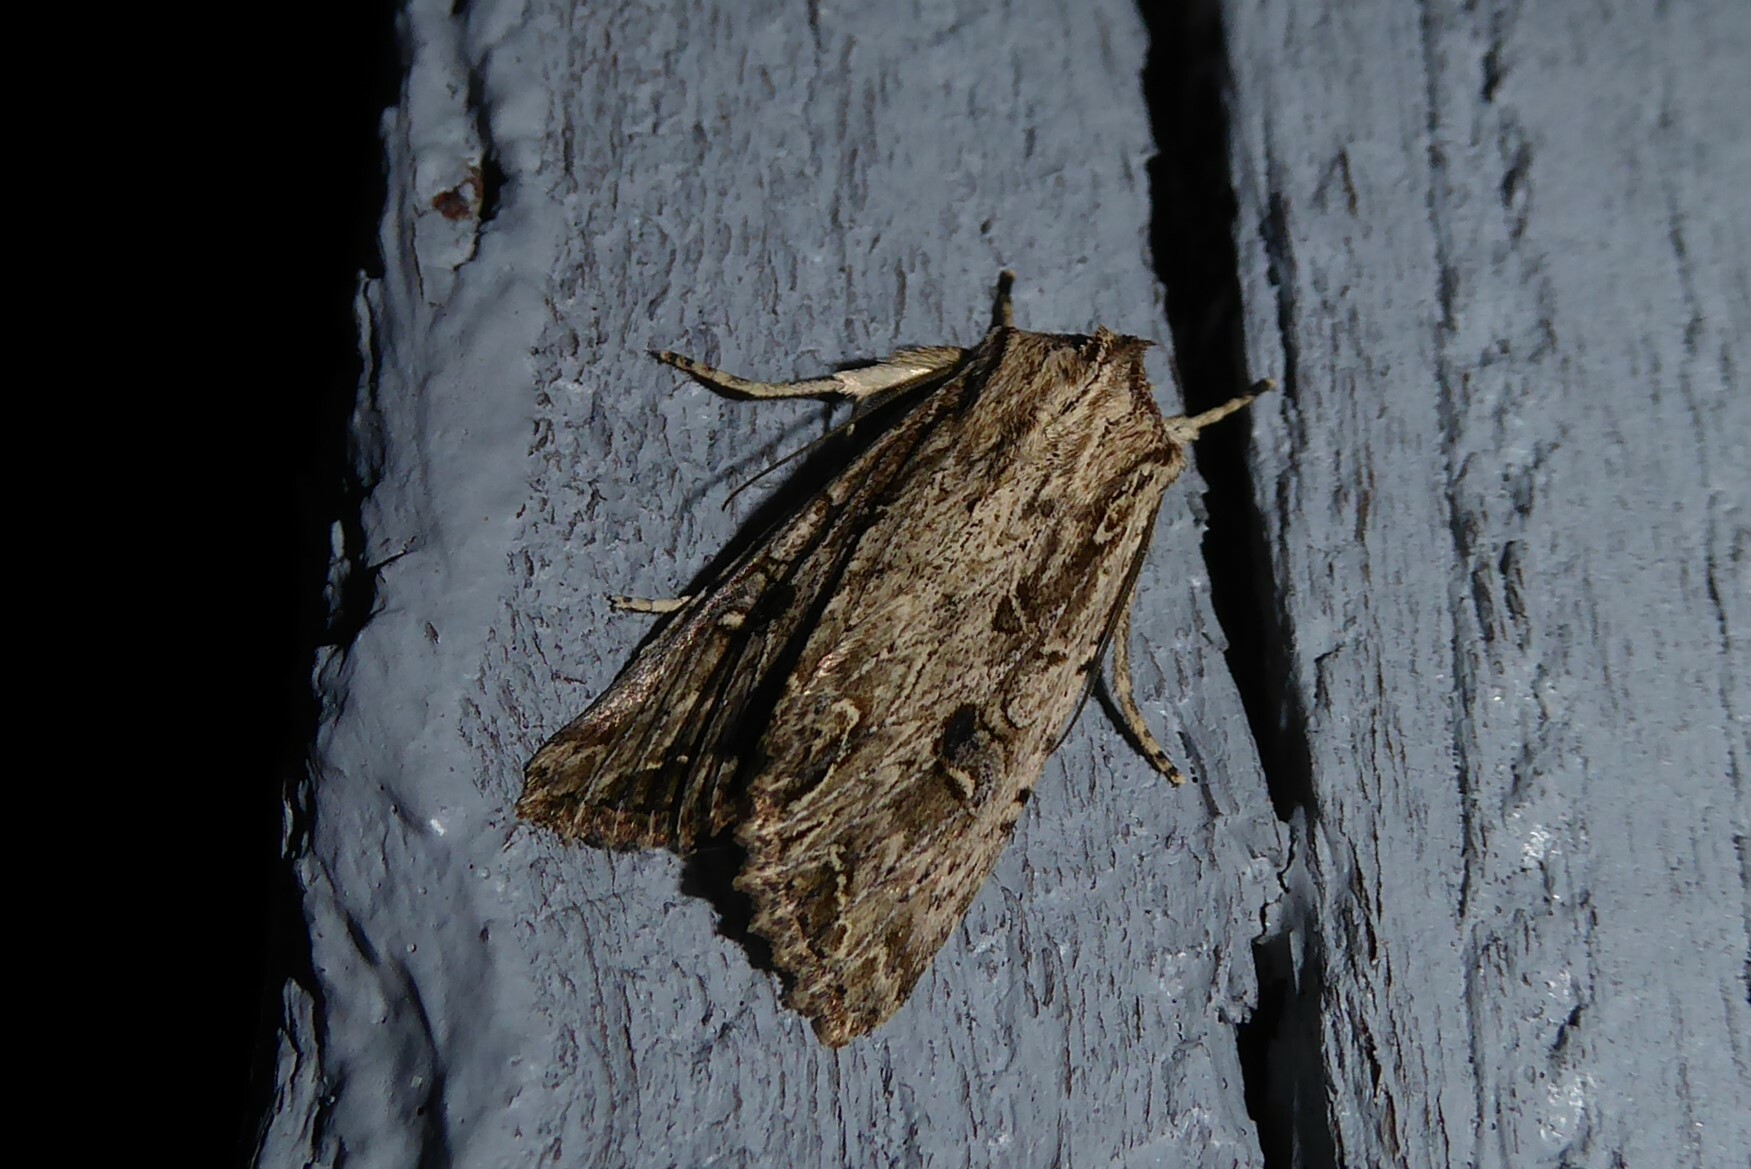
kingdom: Animalia
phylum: Arthropoda
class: Insecta
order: Lepidoptera
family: Noctuidae
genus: Ichneutica
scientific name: Ichneutica lignana
